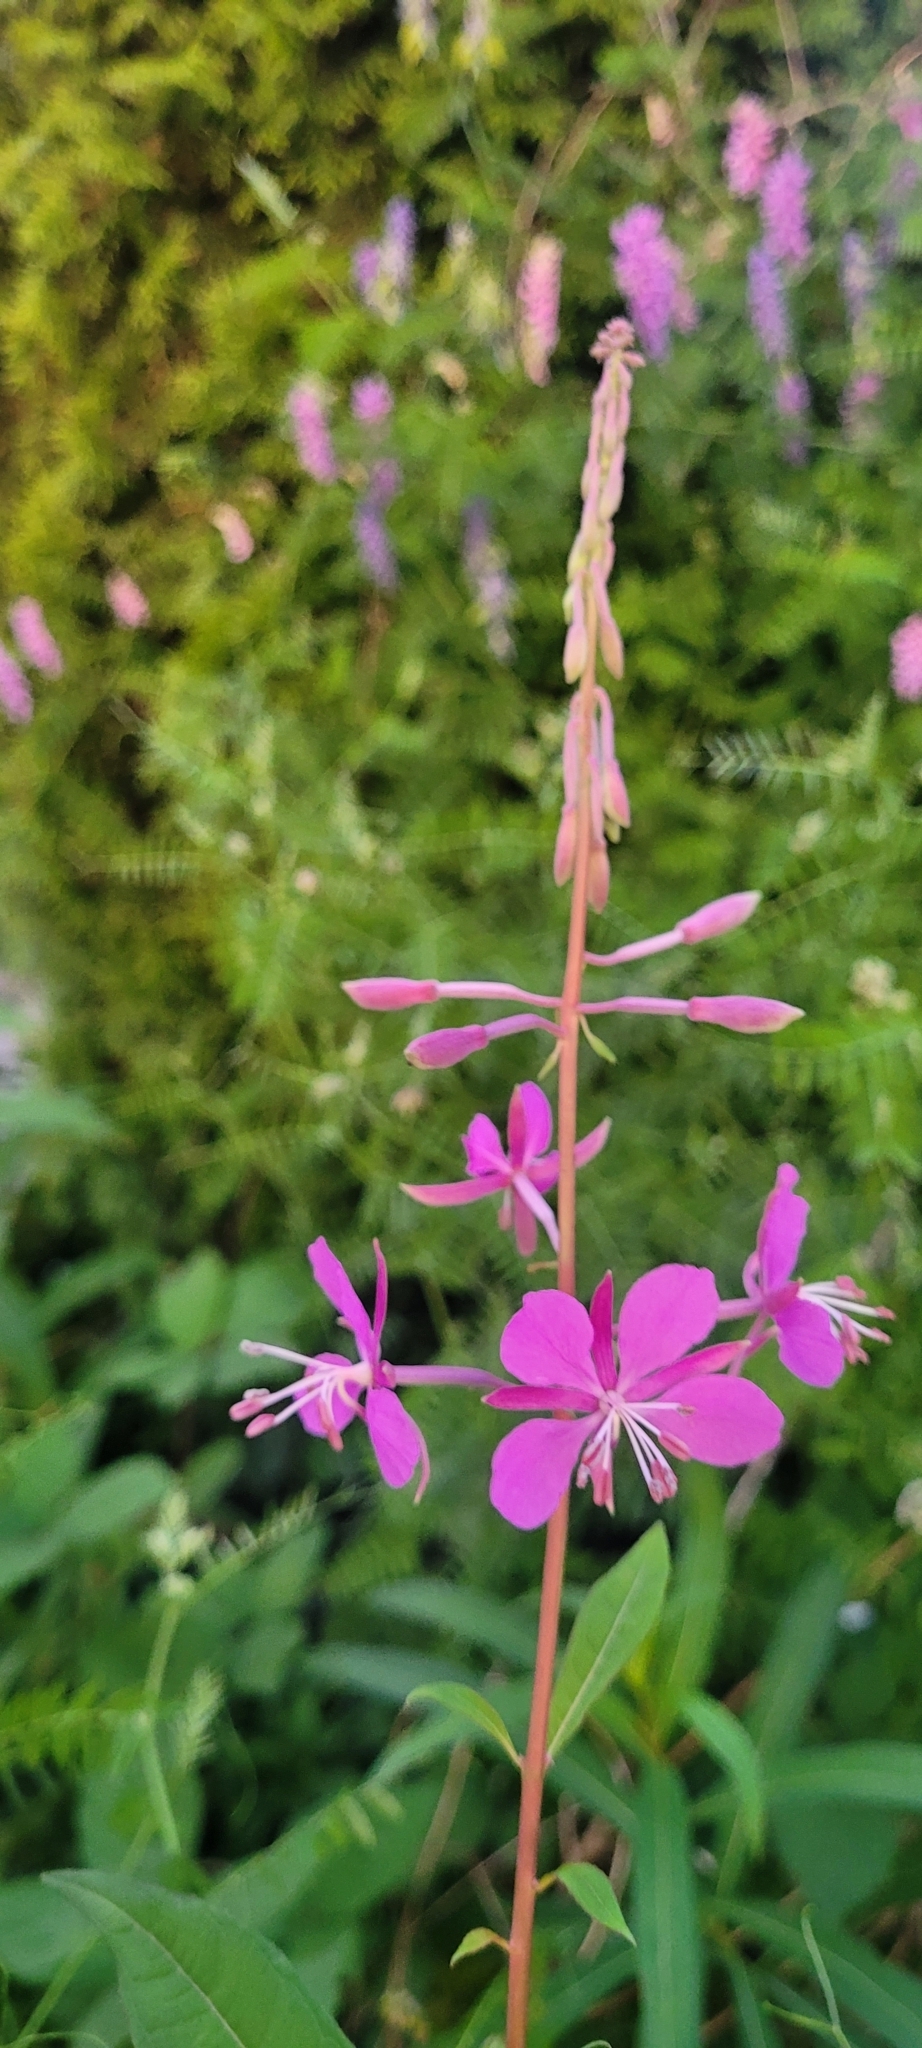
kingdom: Plantae
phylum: Tracheophyta
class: Magnoliopsida
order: Myrtales
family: Onagraceae
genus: Chamaenerion
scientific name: Chamaenerion angustifolium
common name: Fireweed
